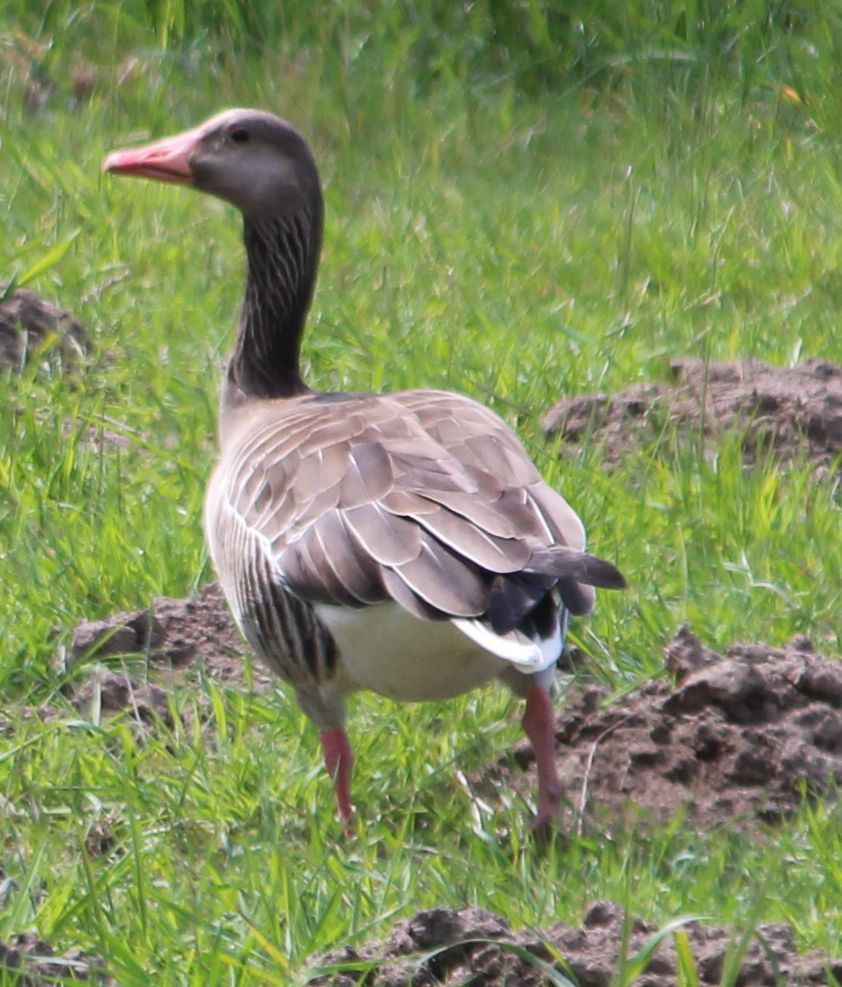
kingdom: Animalia
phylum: Chordata
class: Aves
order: Anseriformes
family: Anatidae
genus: Anser
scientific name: Anser anser
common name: Greylag goose
